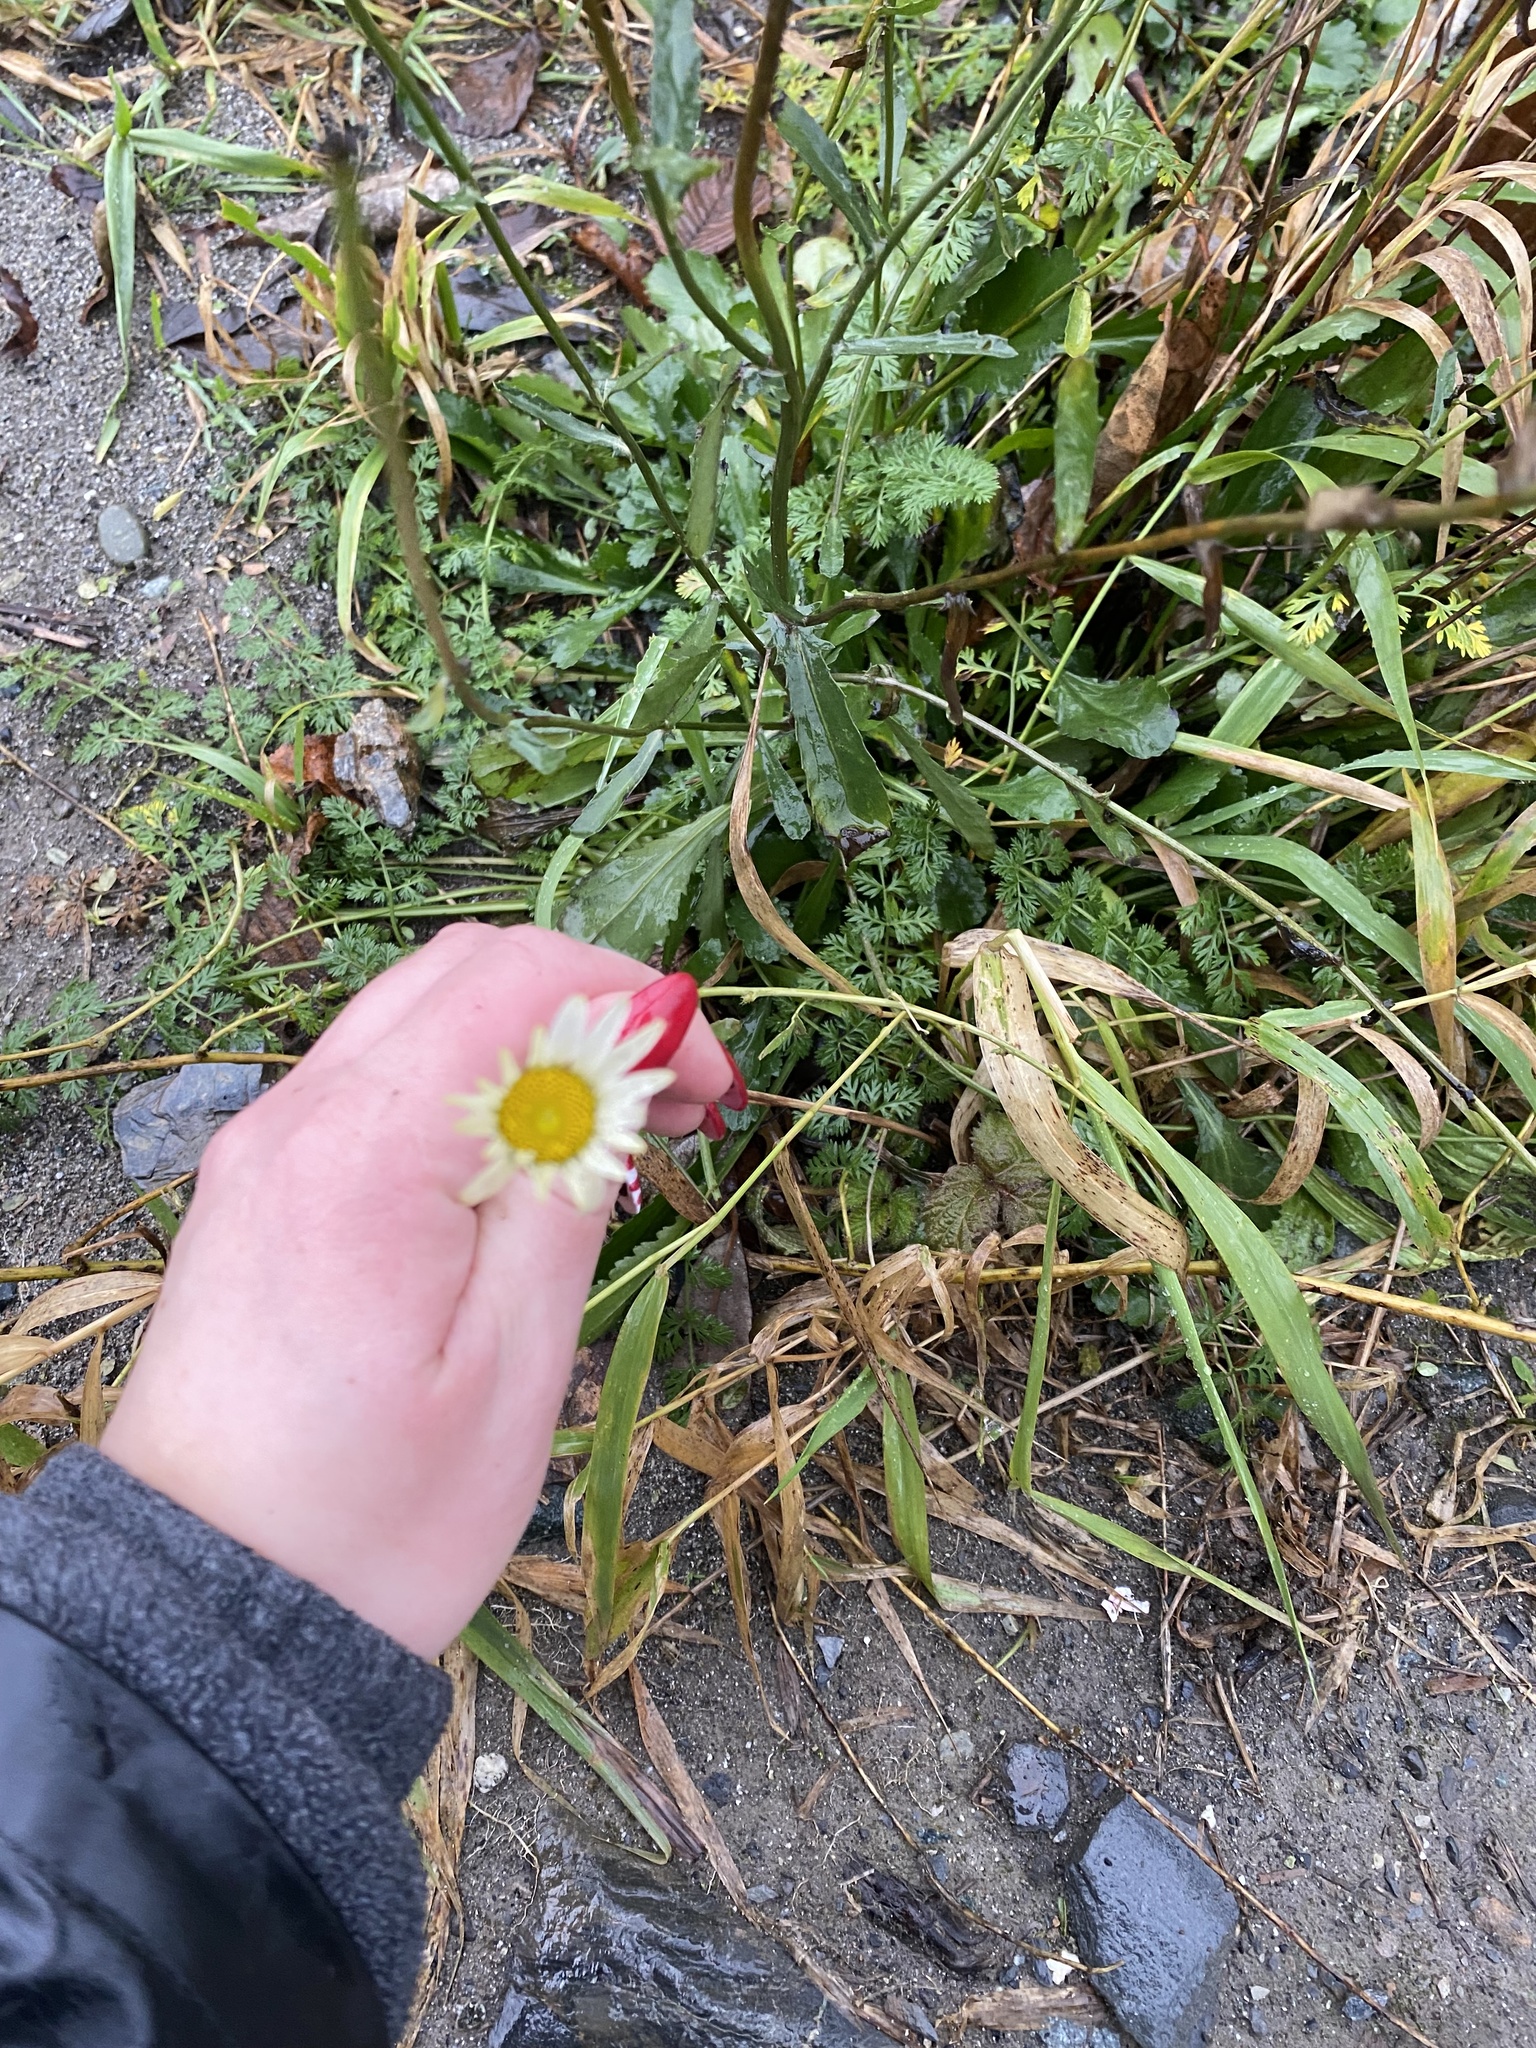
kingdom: Plantae
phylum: Tracheophyta
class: Magnoliopsida
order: Asterales
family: Asteraceae
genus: Leucanthemum
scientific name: Leucanthemum vulgare
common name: Oxeye daisy
